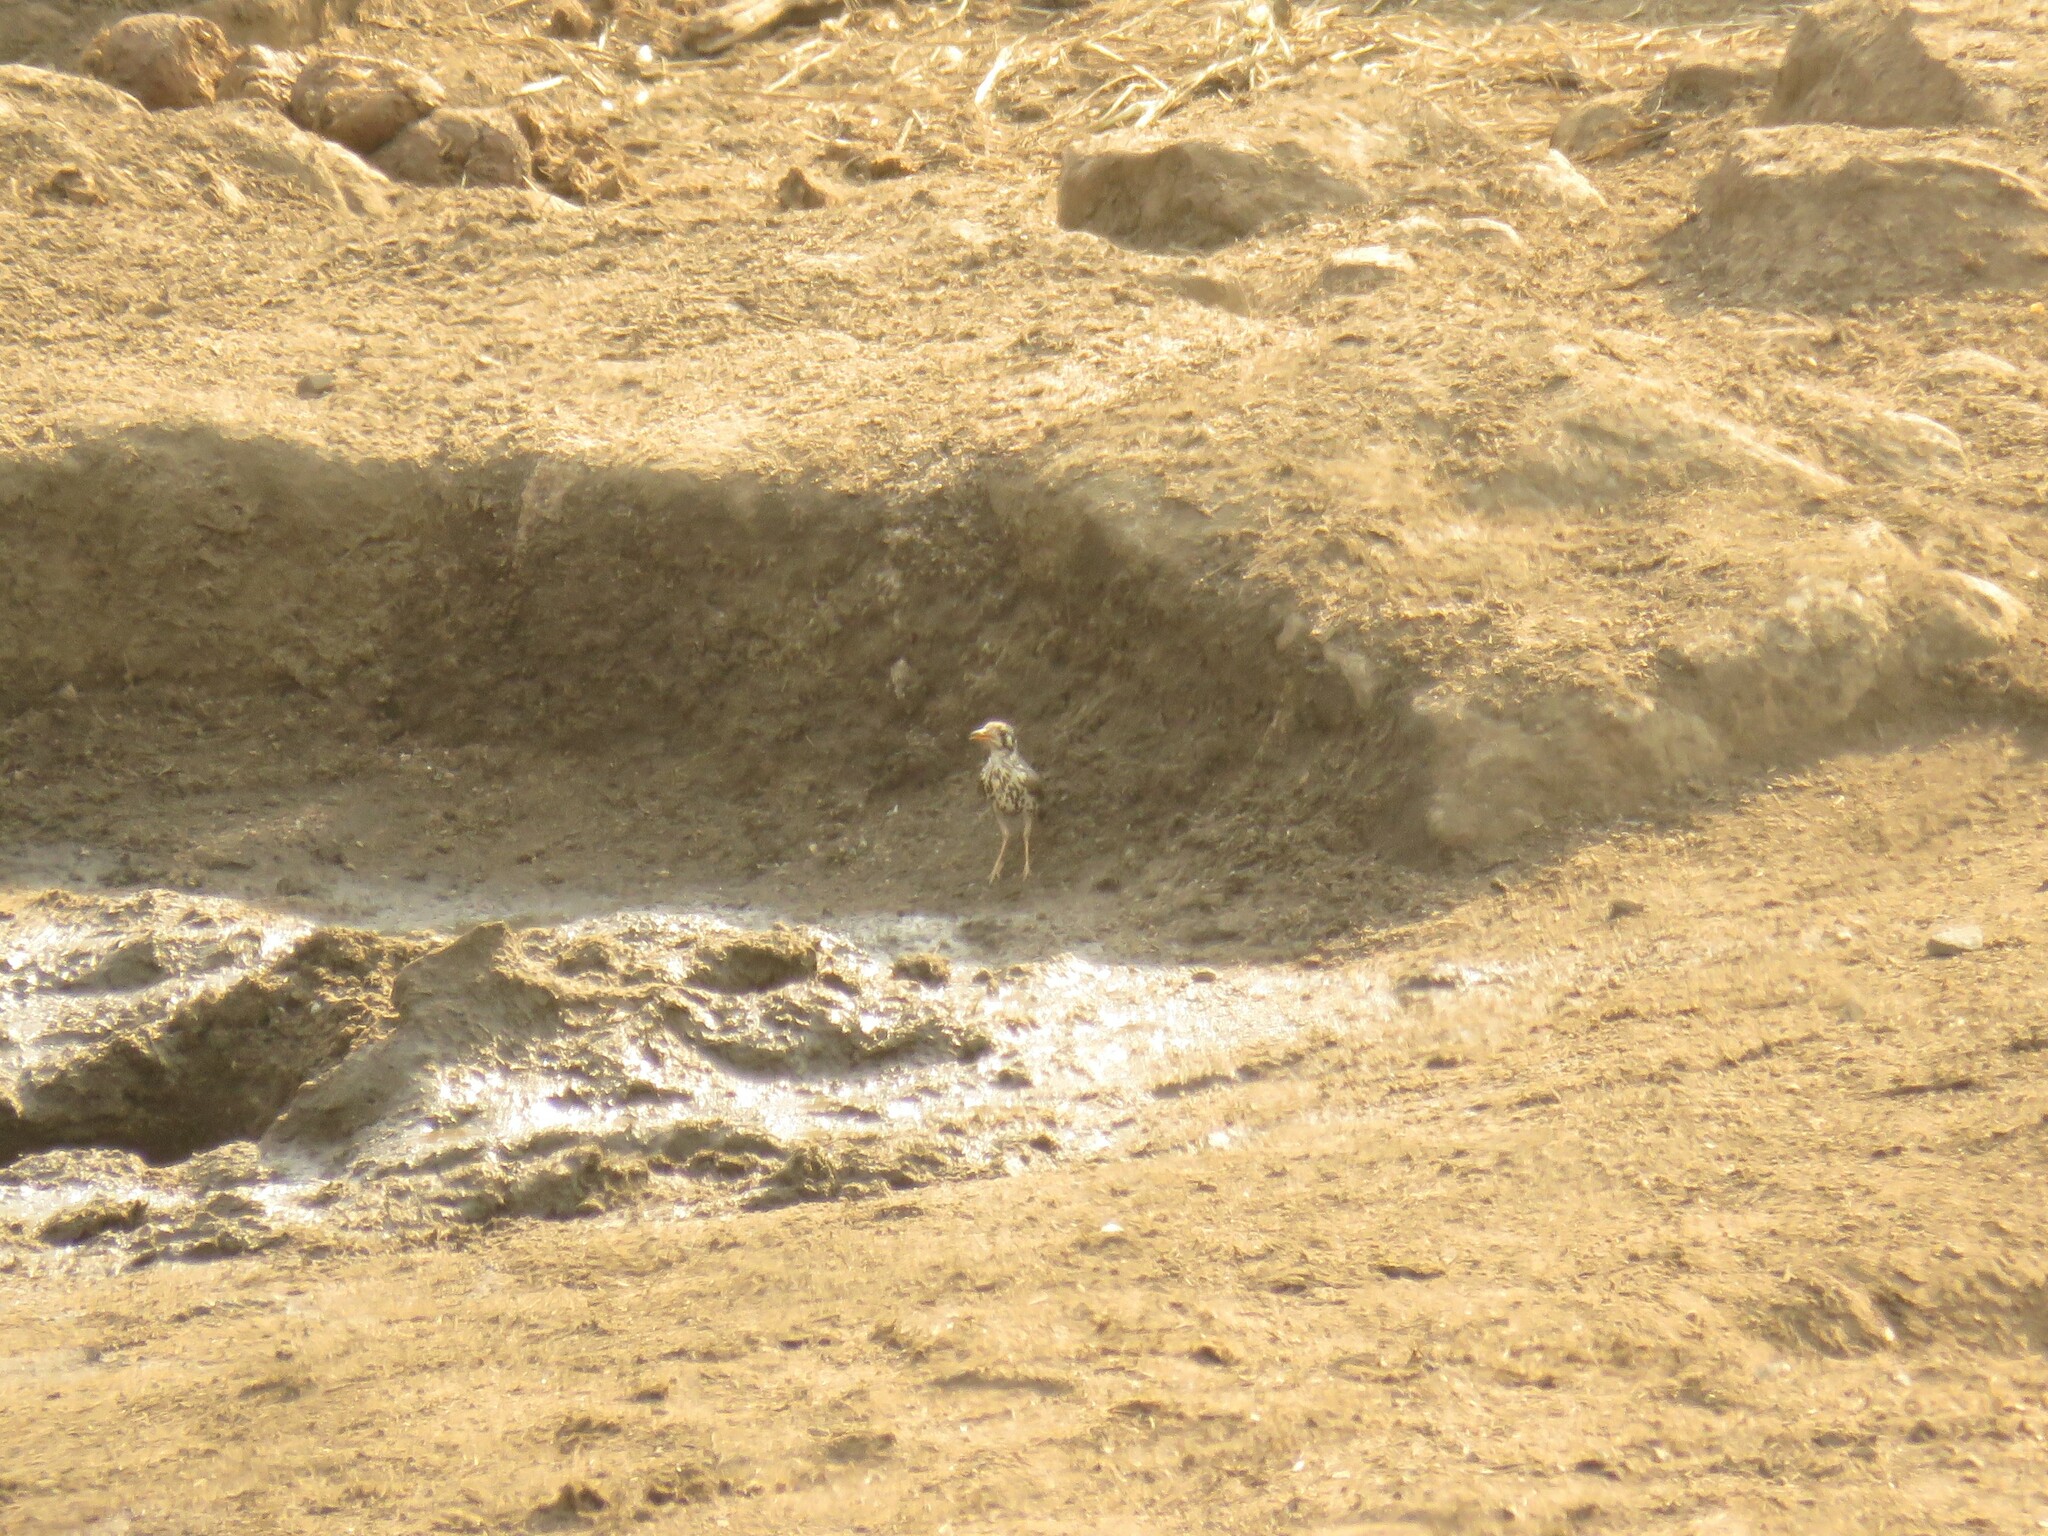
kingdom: Animalia
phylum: Chordata
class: Aves
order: Passeriformes
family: Turdidae
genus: Psophocichla
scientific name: Psophocichla litsitsirupa
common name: Groundscraper thrush
